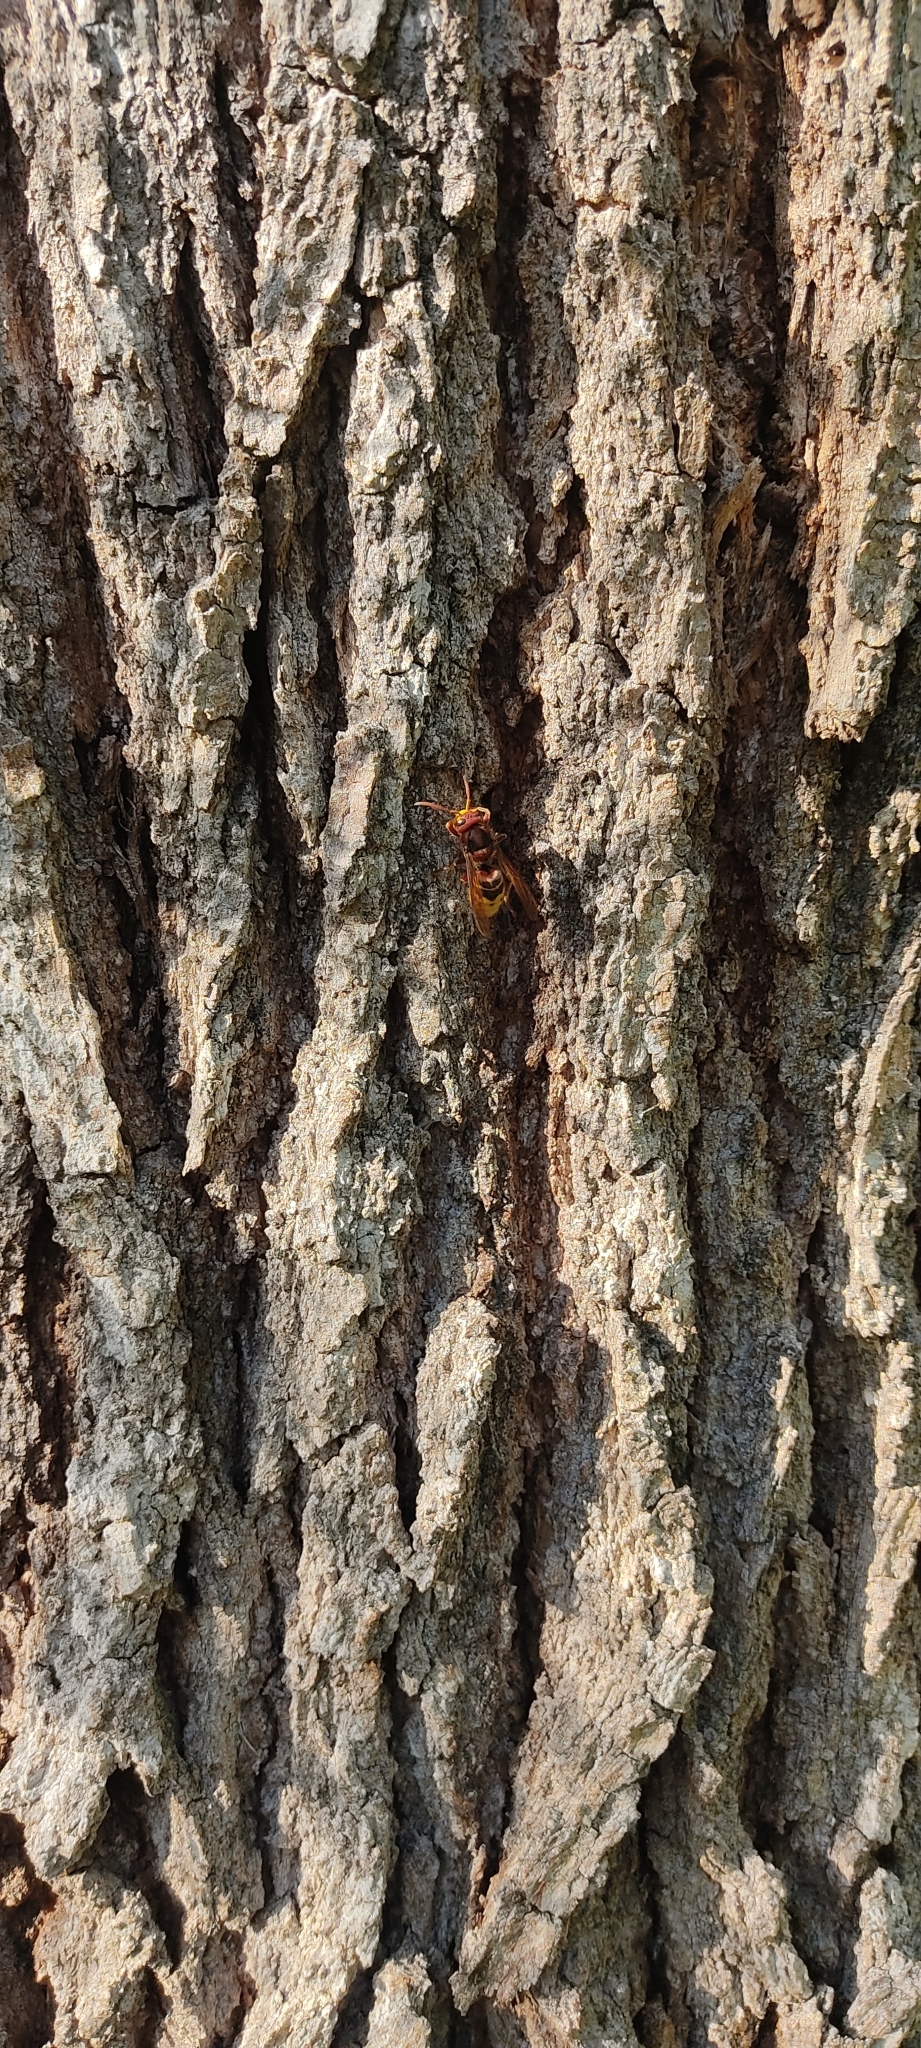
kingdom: Animalia
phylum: Arthropoda
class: Insecta
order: Hymenoptera
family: Vespidae
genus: Vespa
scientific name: Vespa crabro
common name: Hornet
